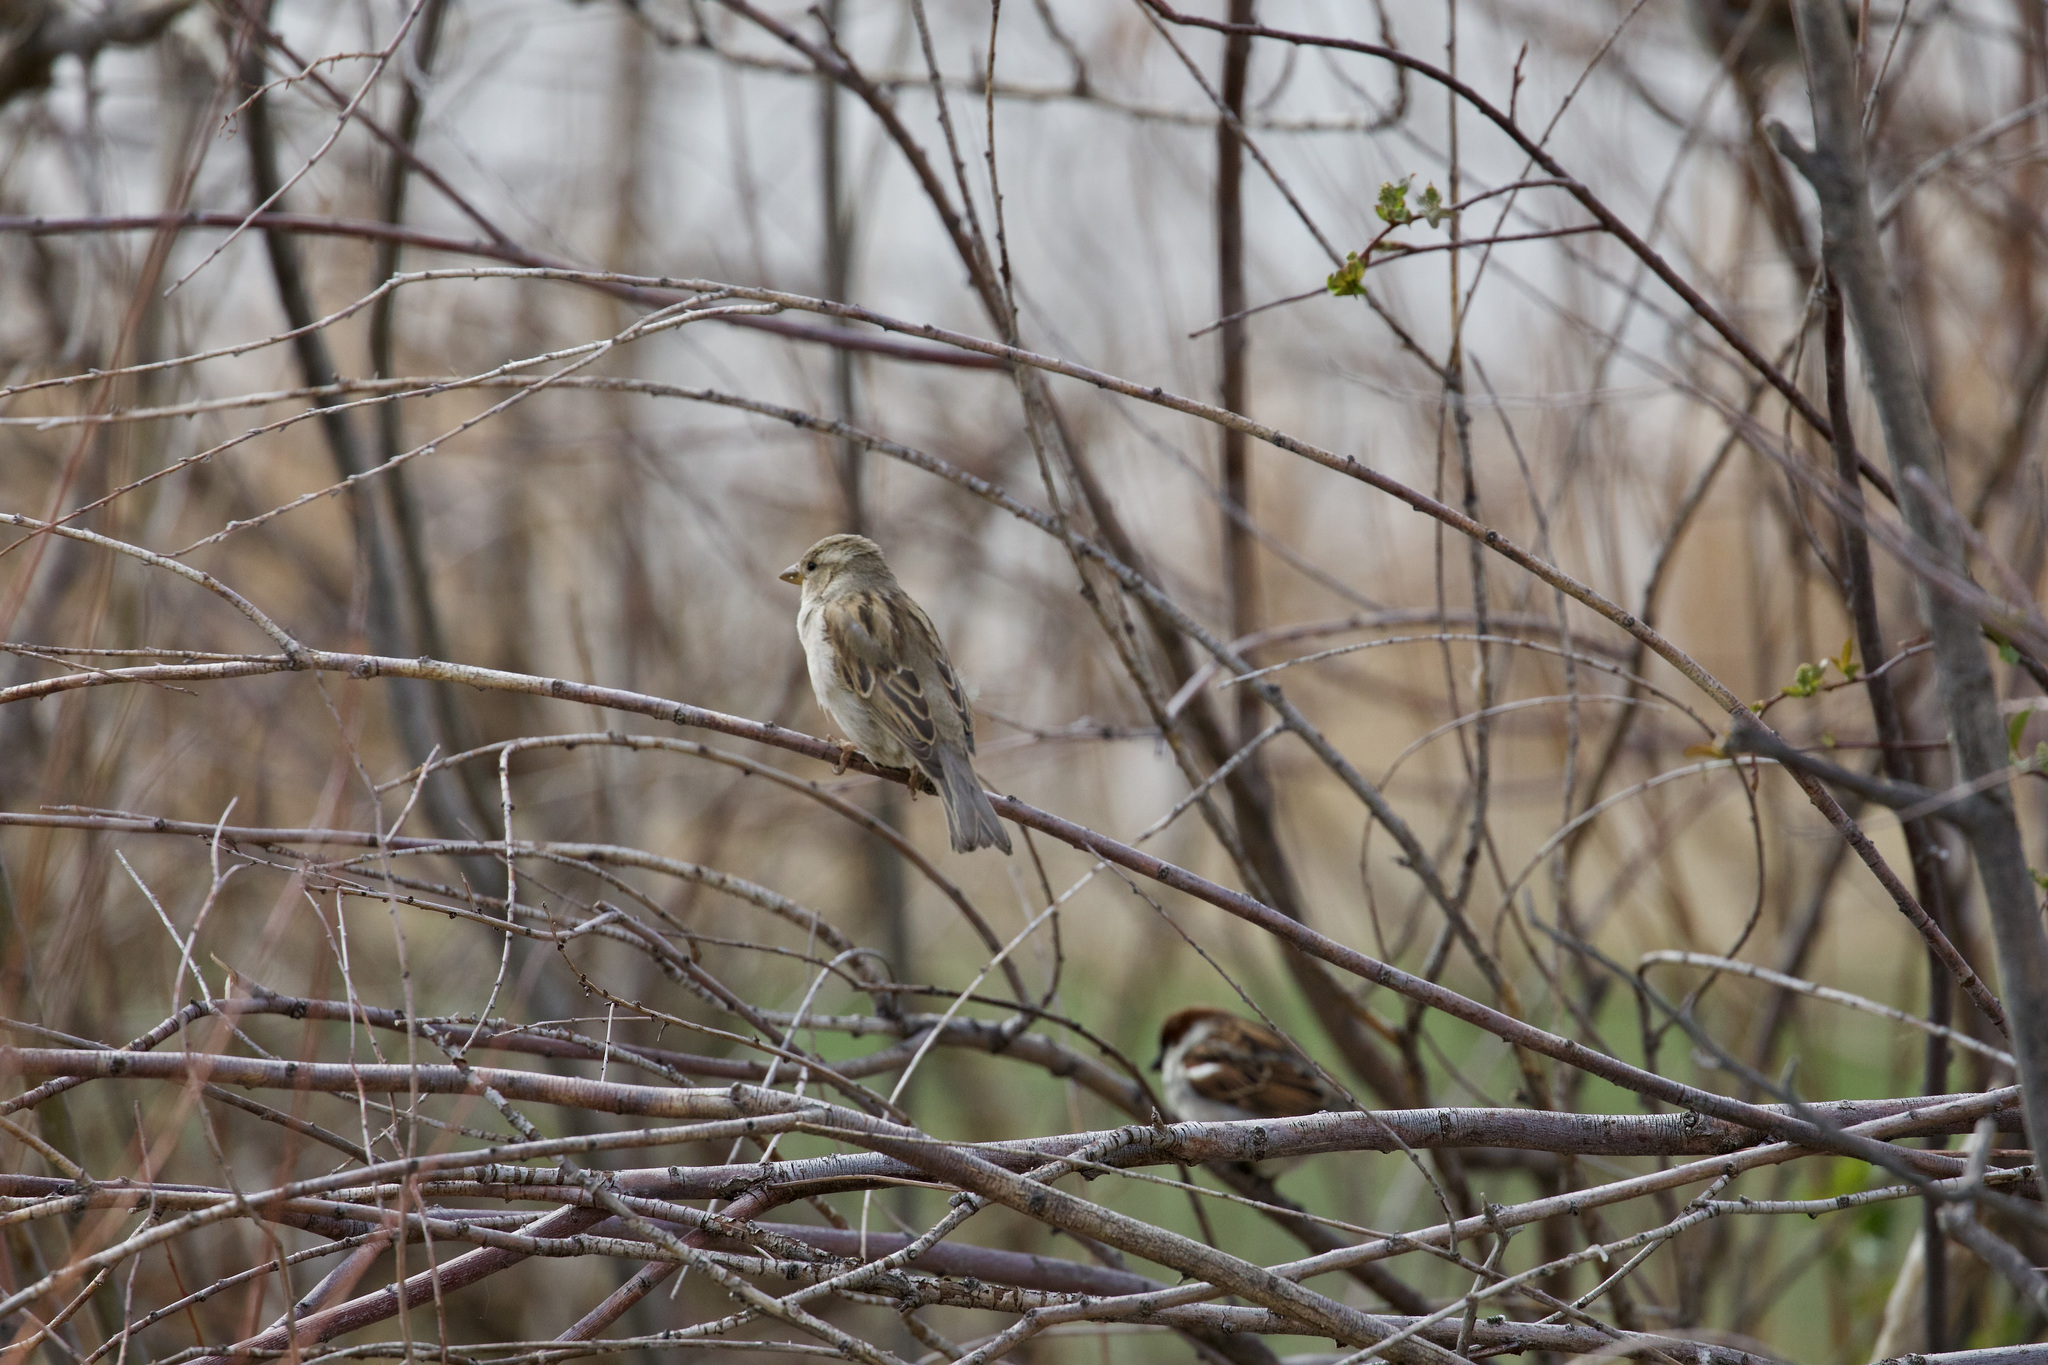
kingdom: Animalia
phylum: Chordata
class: Aves
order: Passeriformes
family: Passeridae
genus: Passer
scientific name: Passer domesticus
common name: House sparrow
